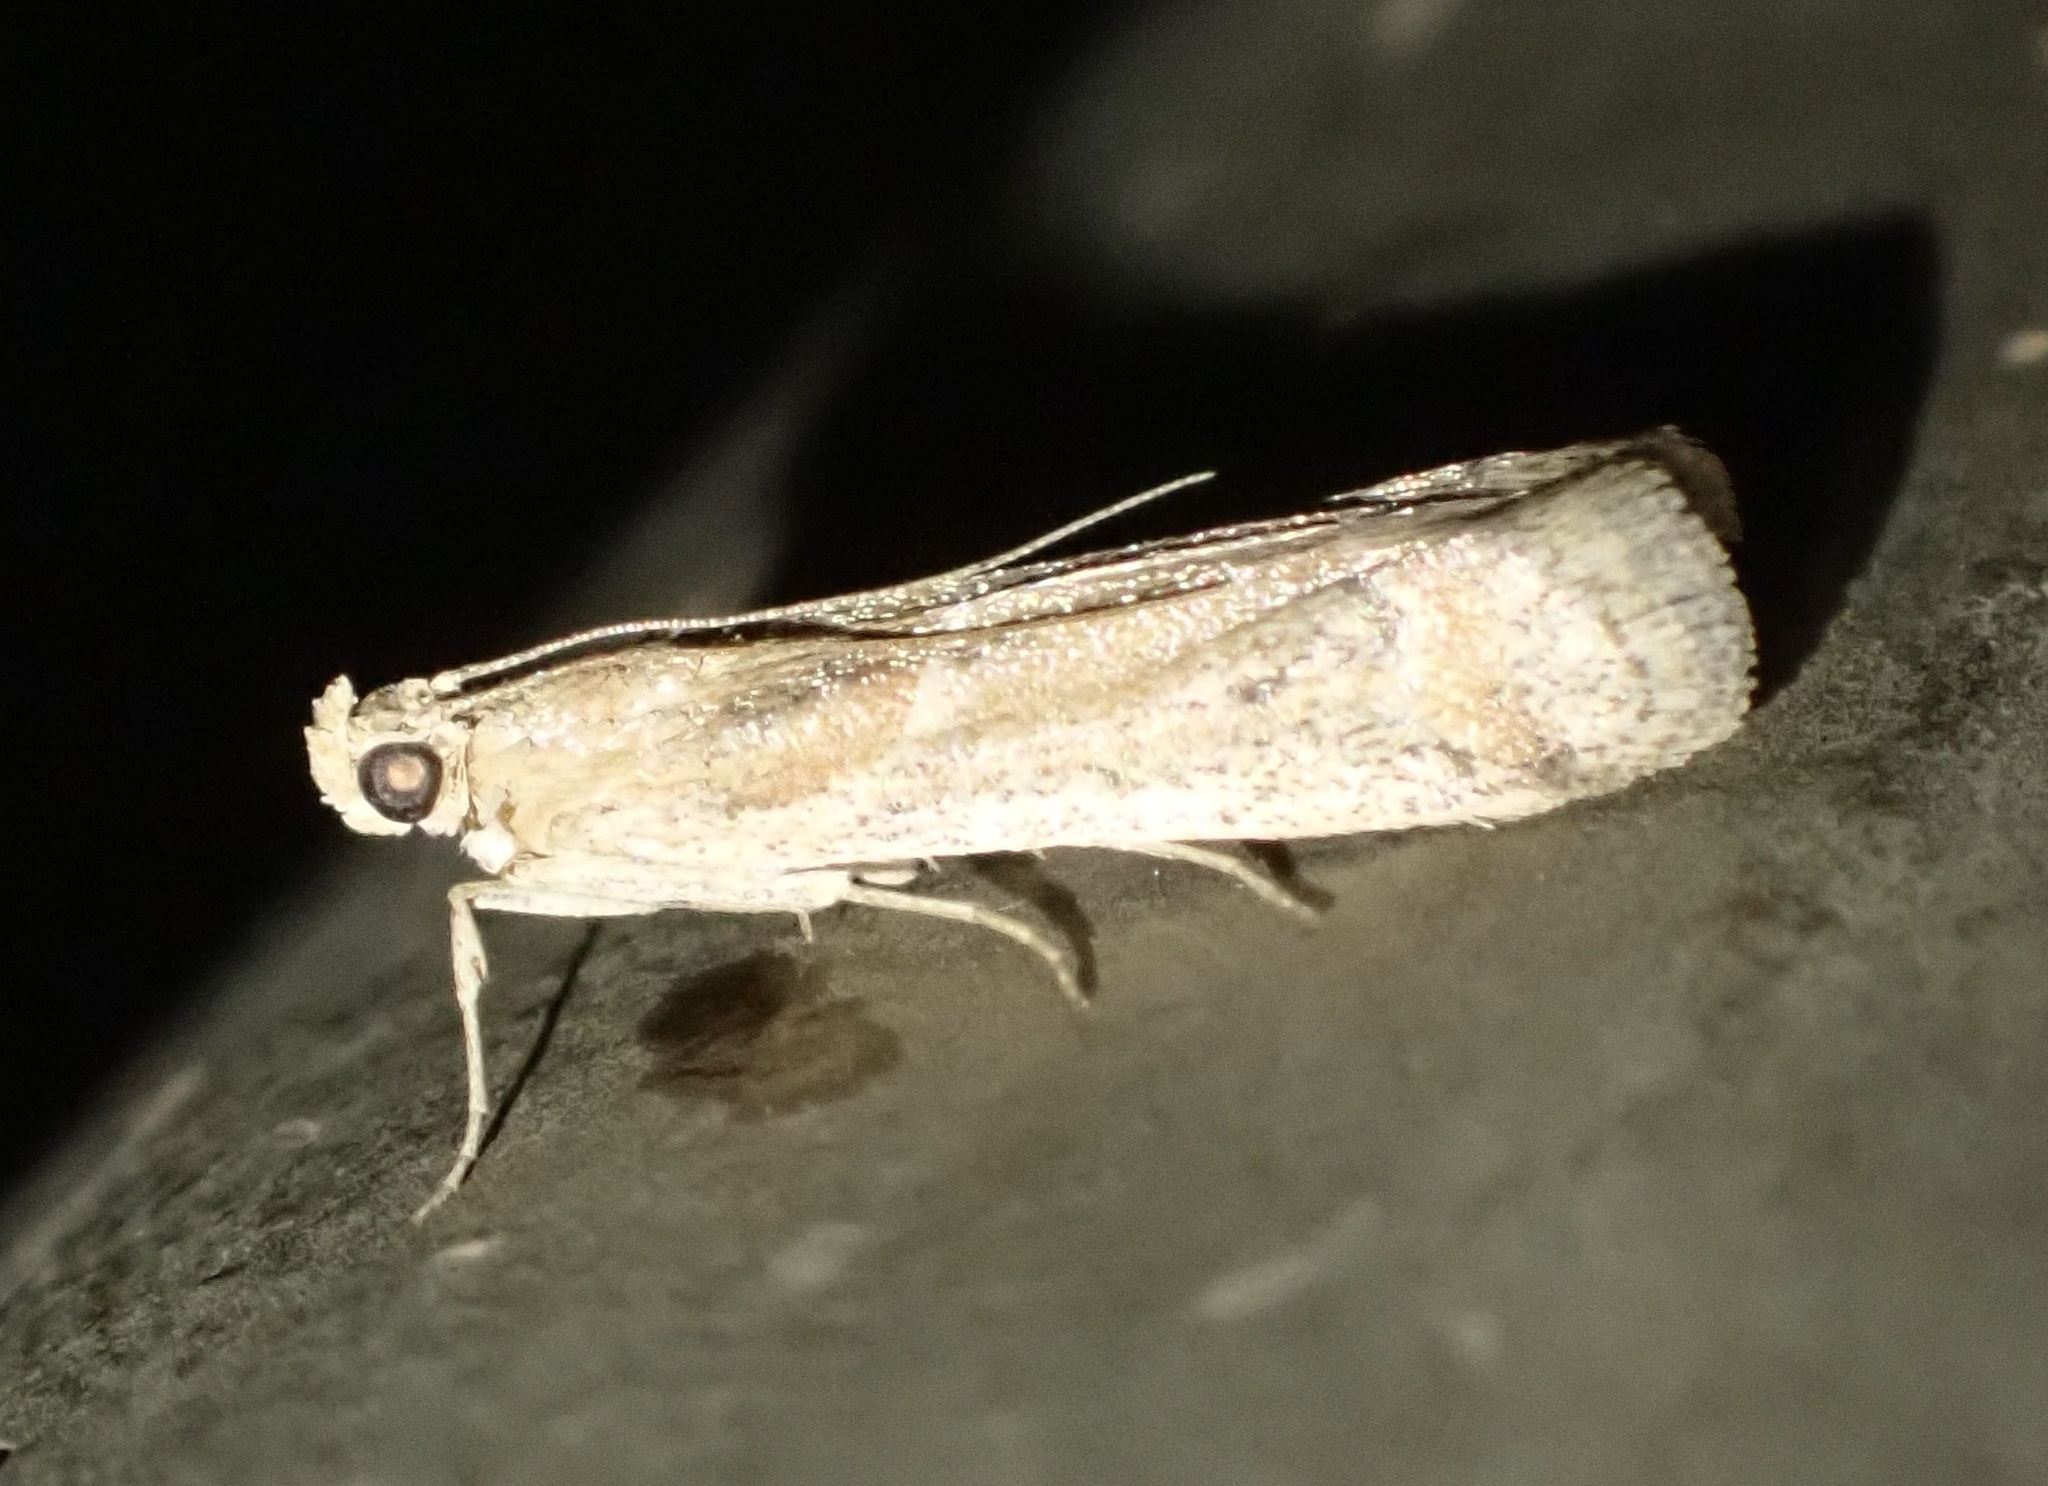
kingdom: Animalia
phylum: Arthropoda
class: Insecta
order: Lepidoptera
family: Pyralidae
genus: Ancylosis
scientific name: Ancylosis samaritanella
